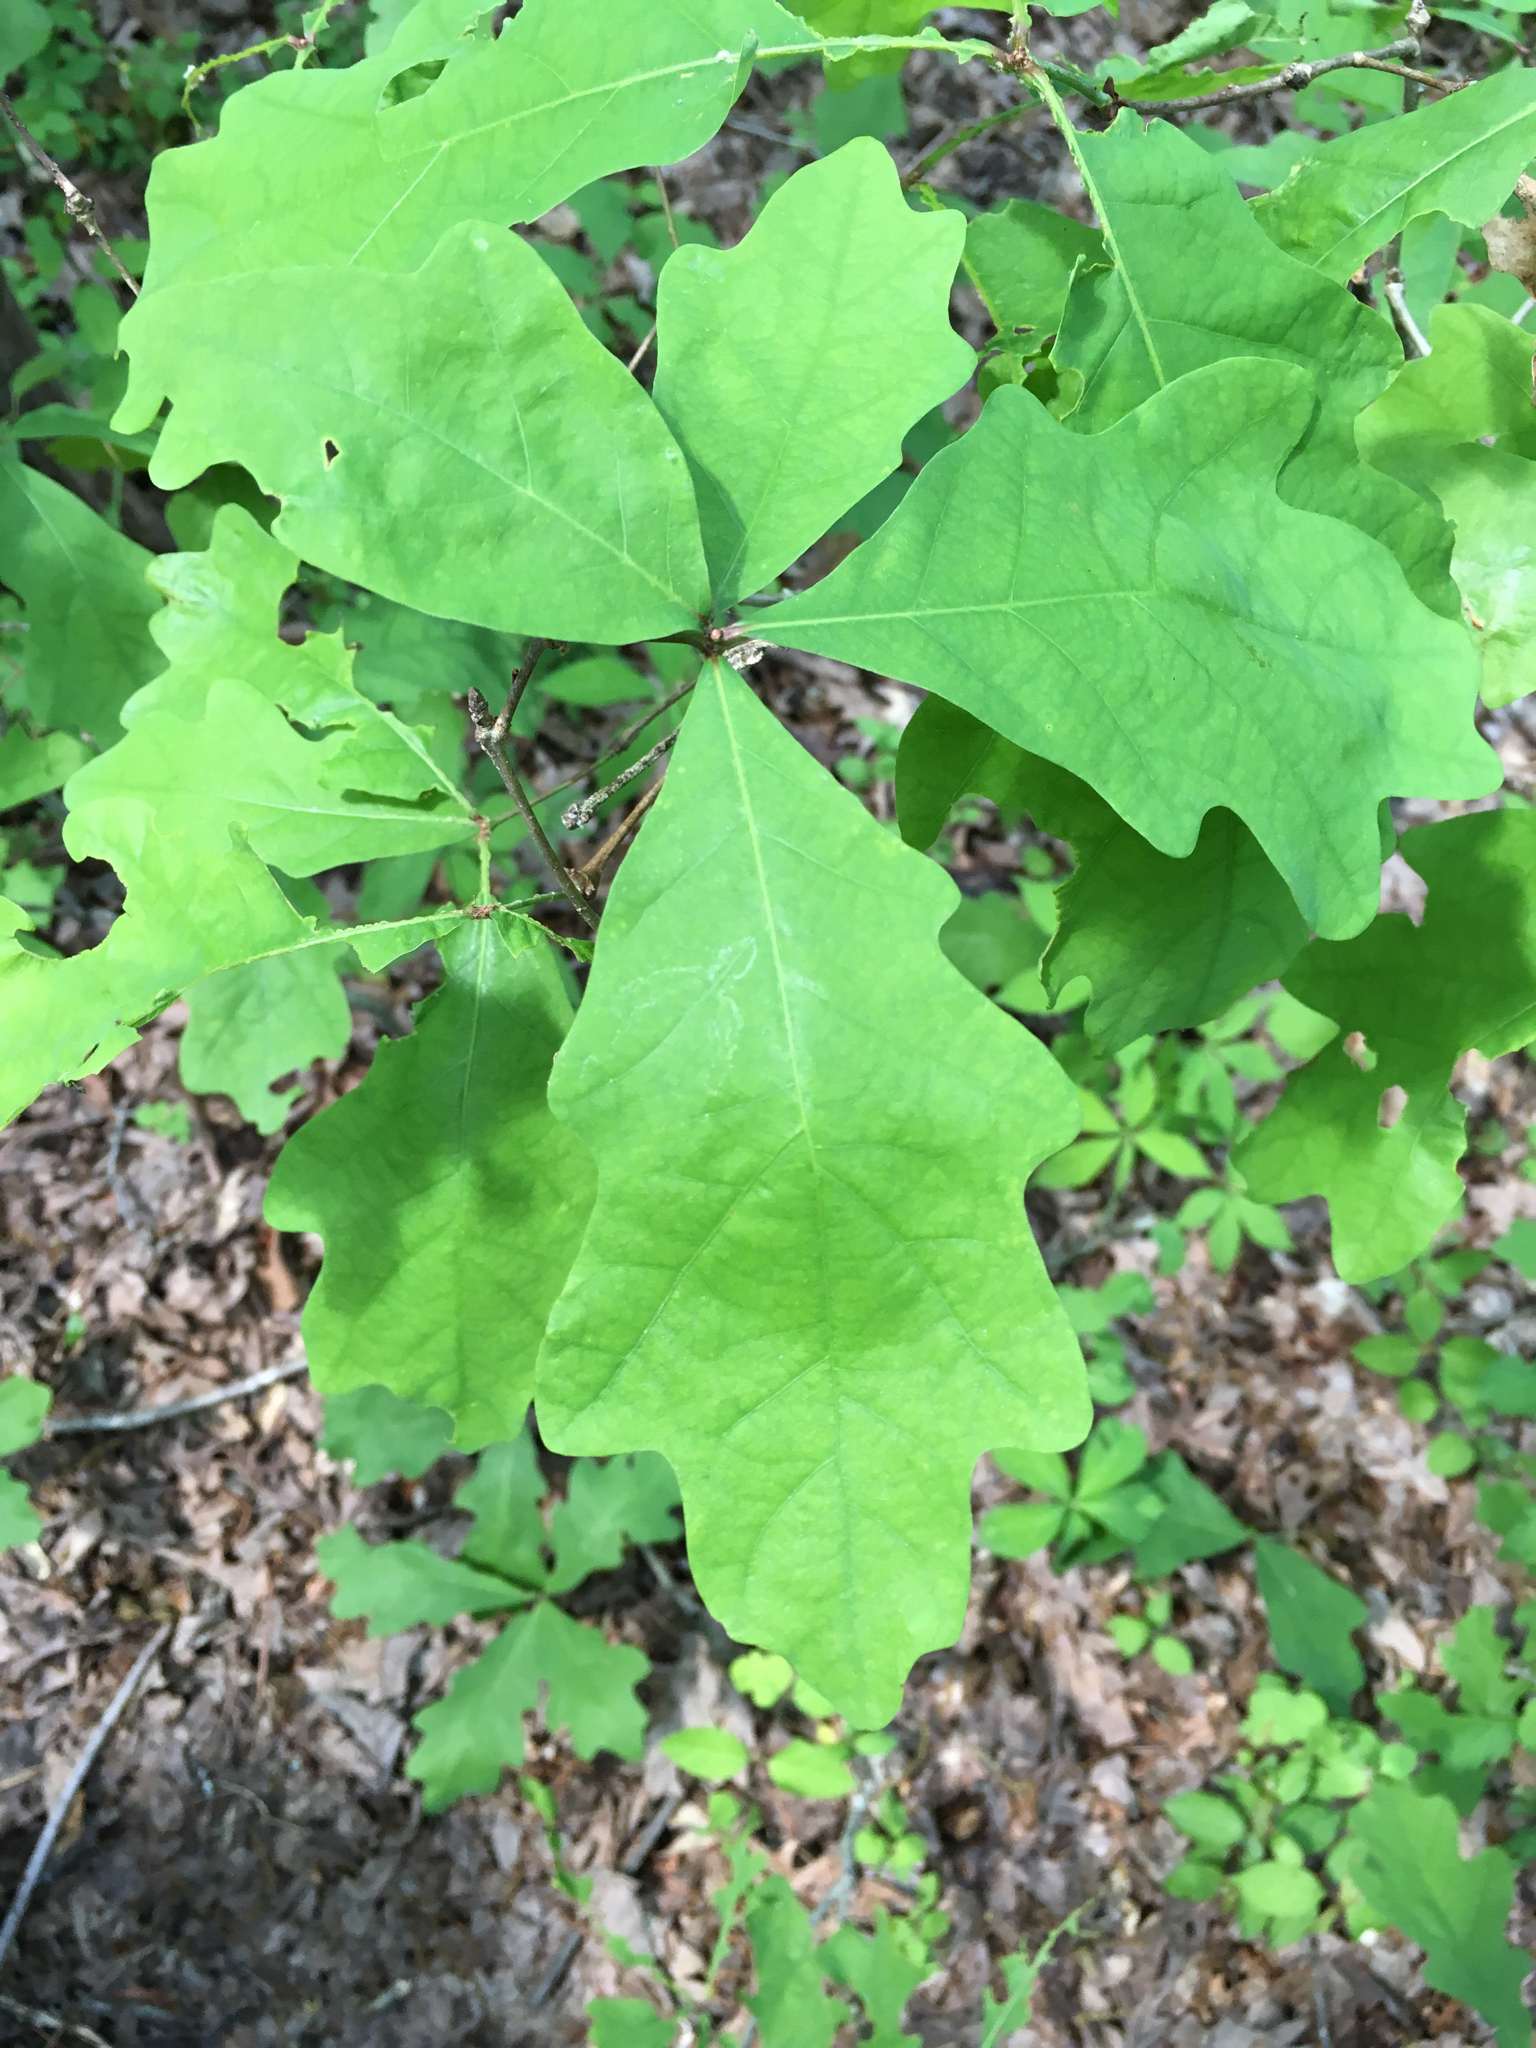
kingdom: Plantae
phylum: Tracheophyta
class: Magnoliopsida
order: Fagales
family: Fagaceae
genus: Quercus
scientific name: Quercus alba
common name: White oak
